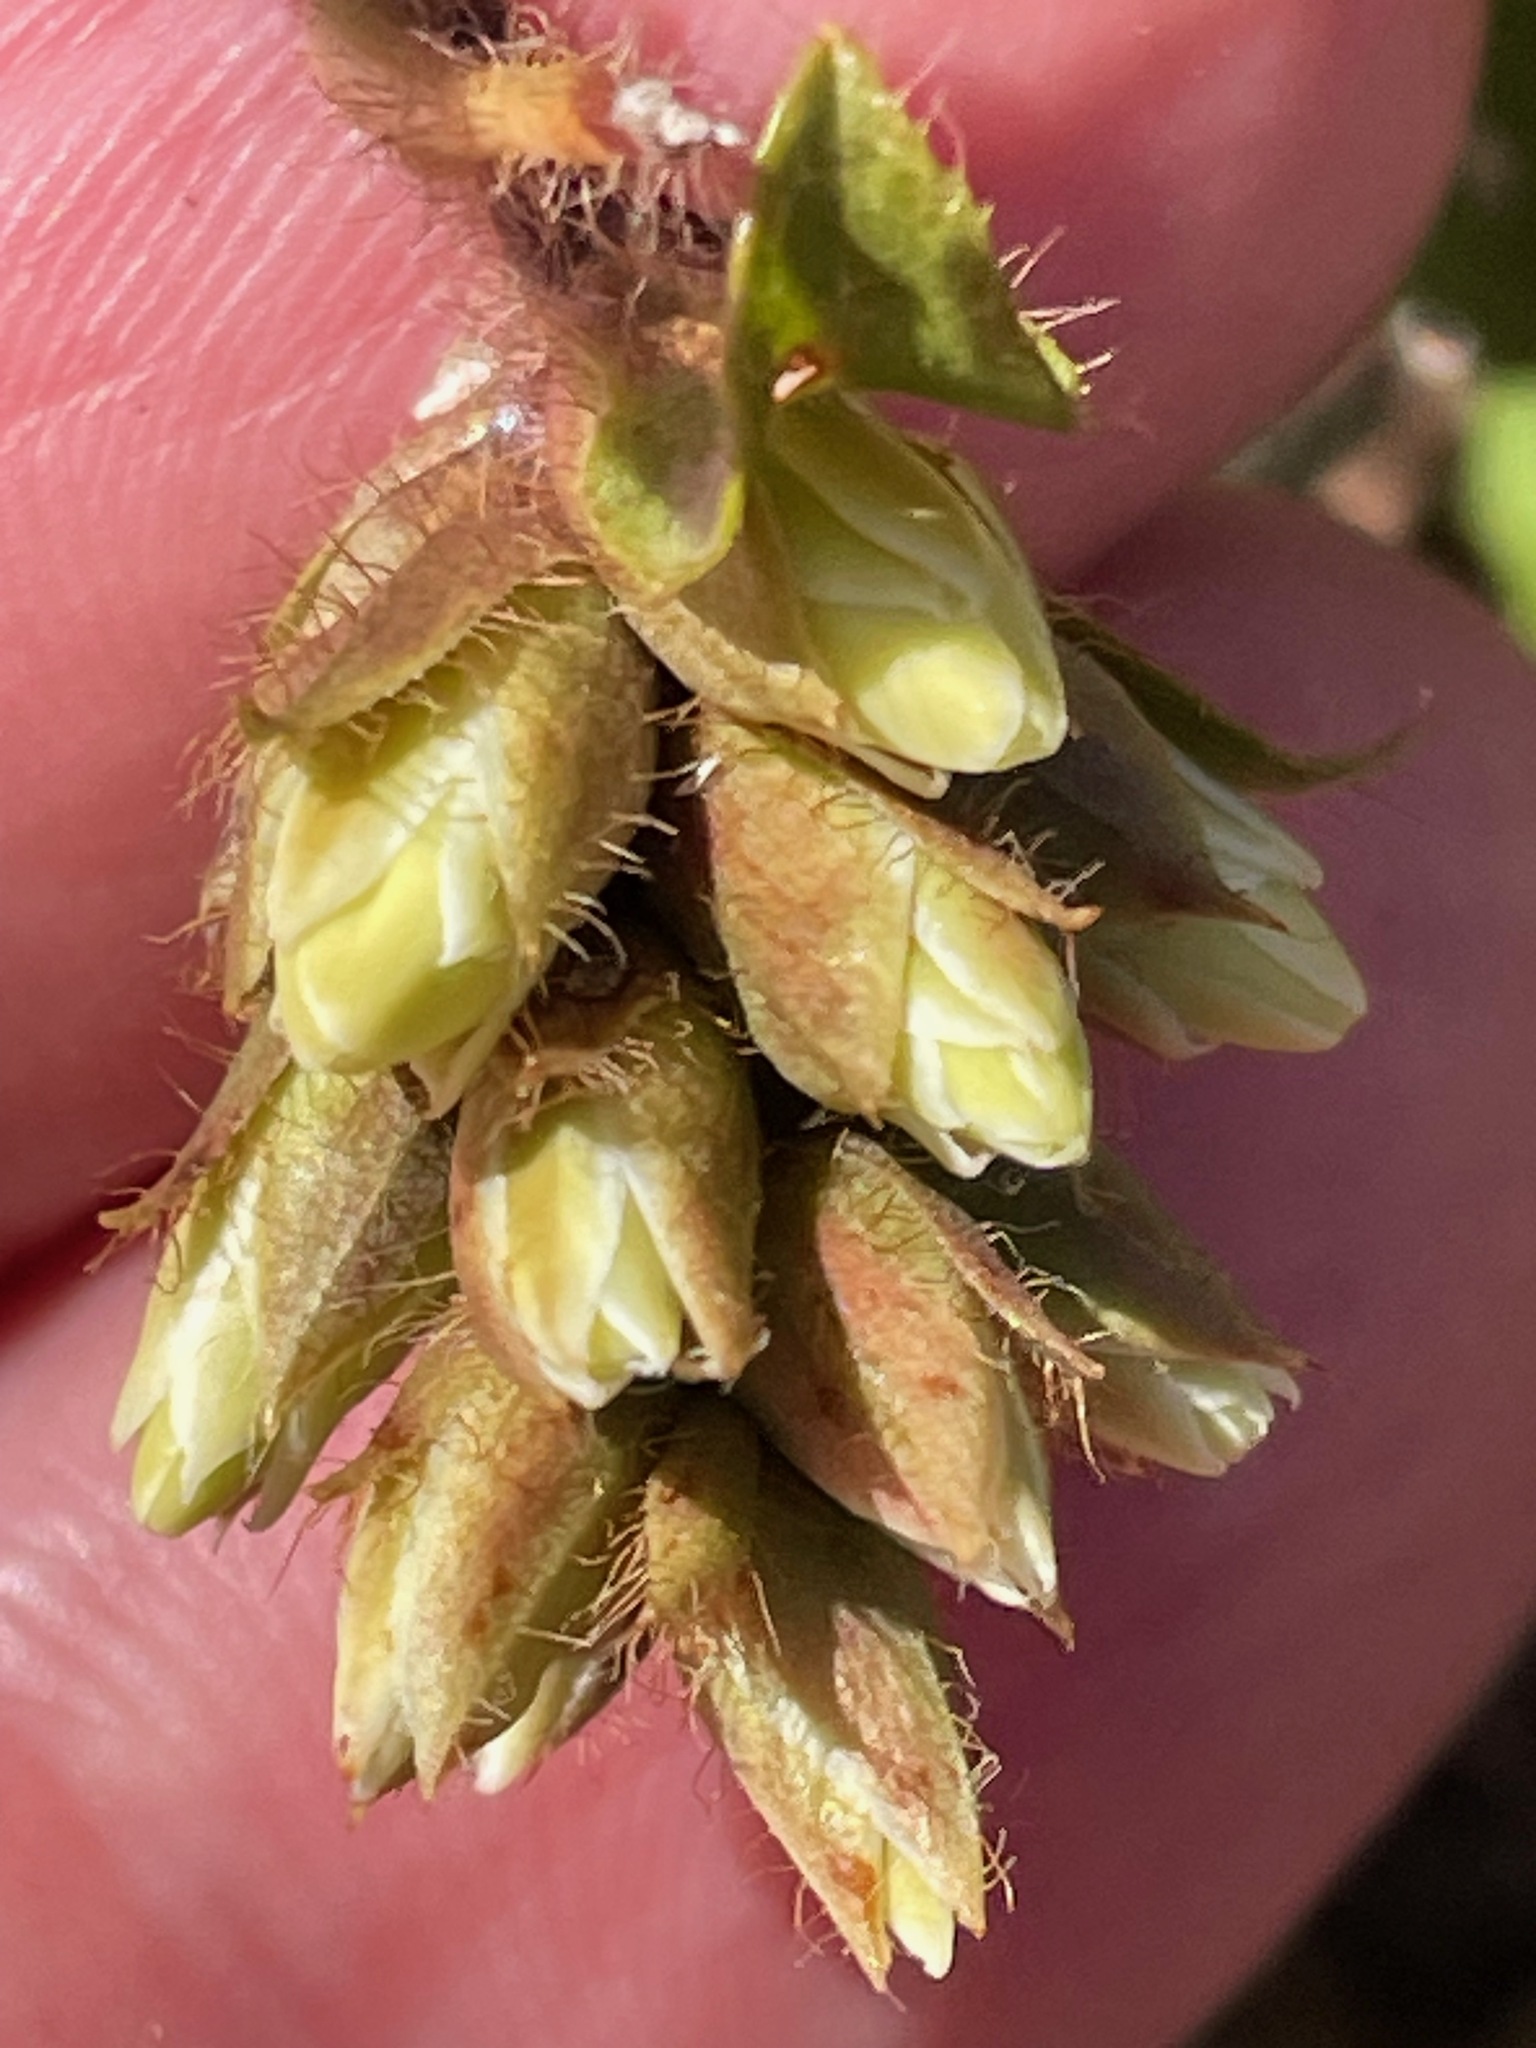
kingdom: Plantae
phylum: Tracheophyta
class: Magnoliopsida
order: Ericales
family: Ericaceae
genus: Epigaea
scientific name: Epigaea repens
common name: Gravelroot
